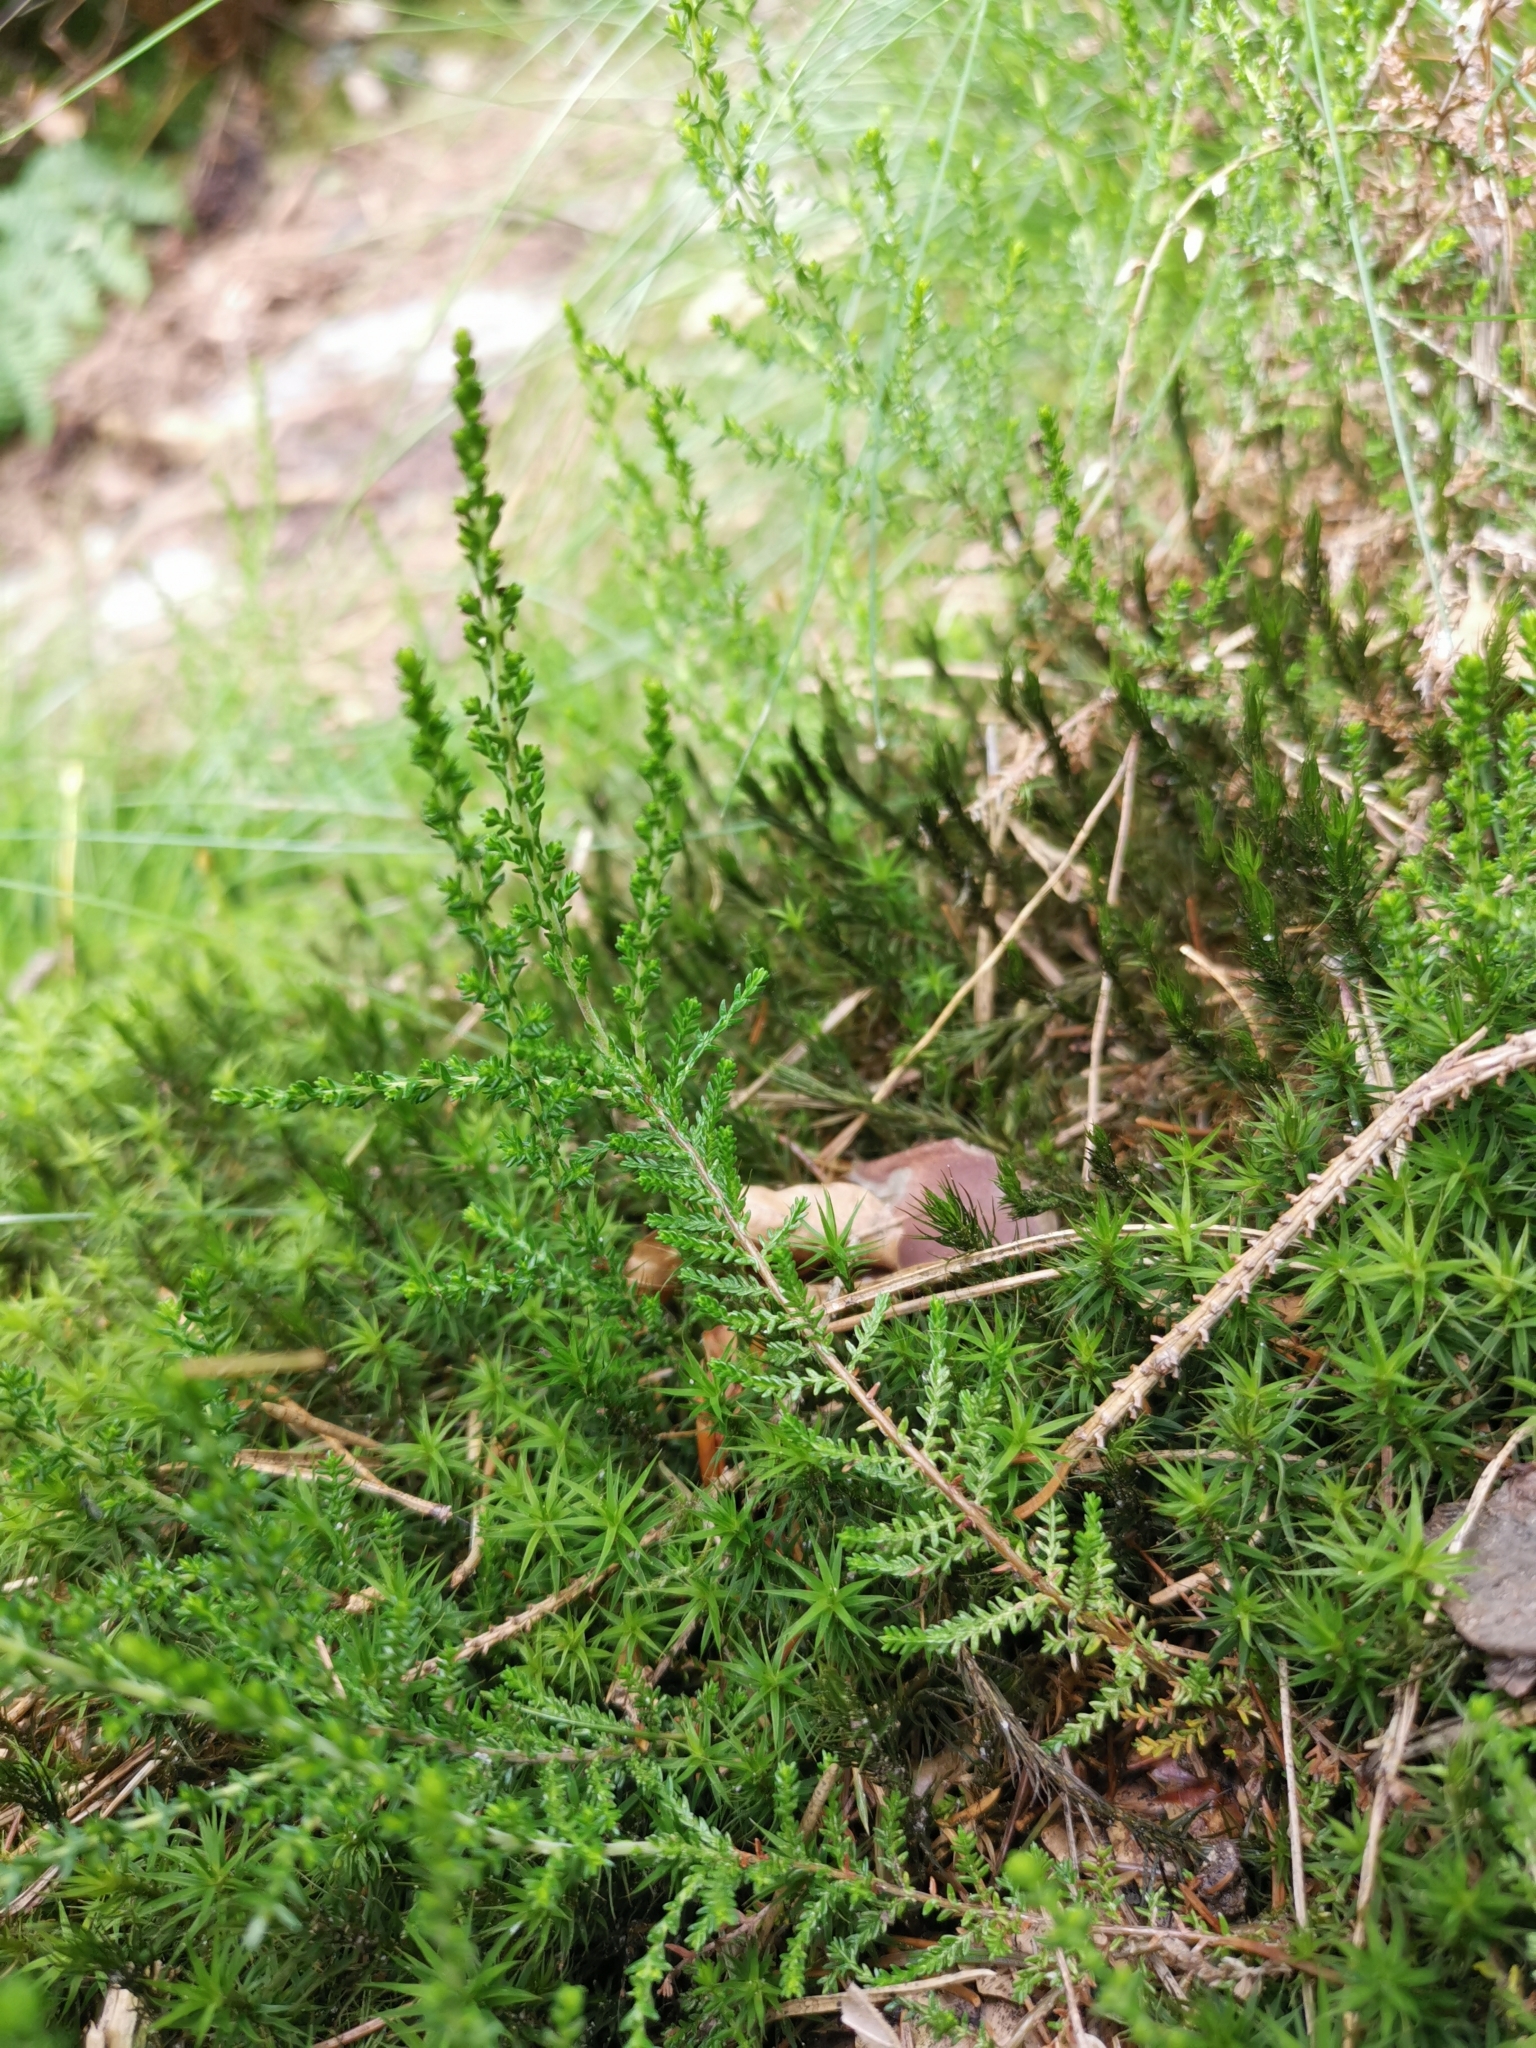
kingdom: Plantae
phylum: Tracheophyta
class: Magnoliopsida
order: Ericales
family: Ericaceae
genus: Calluna
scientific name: Calluna vulgaris
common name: Heather
